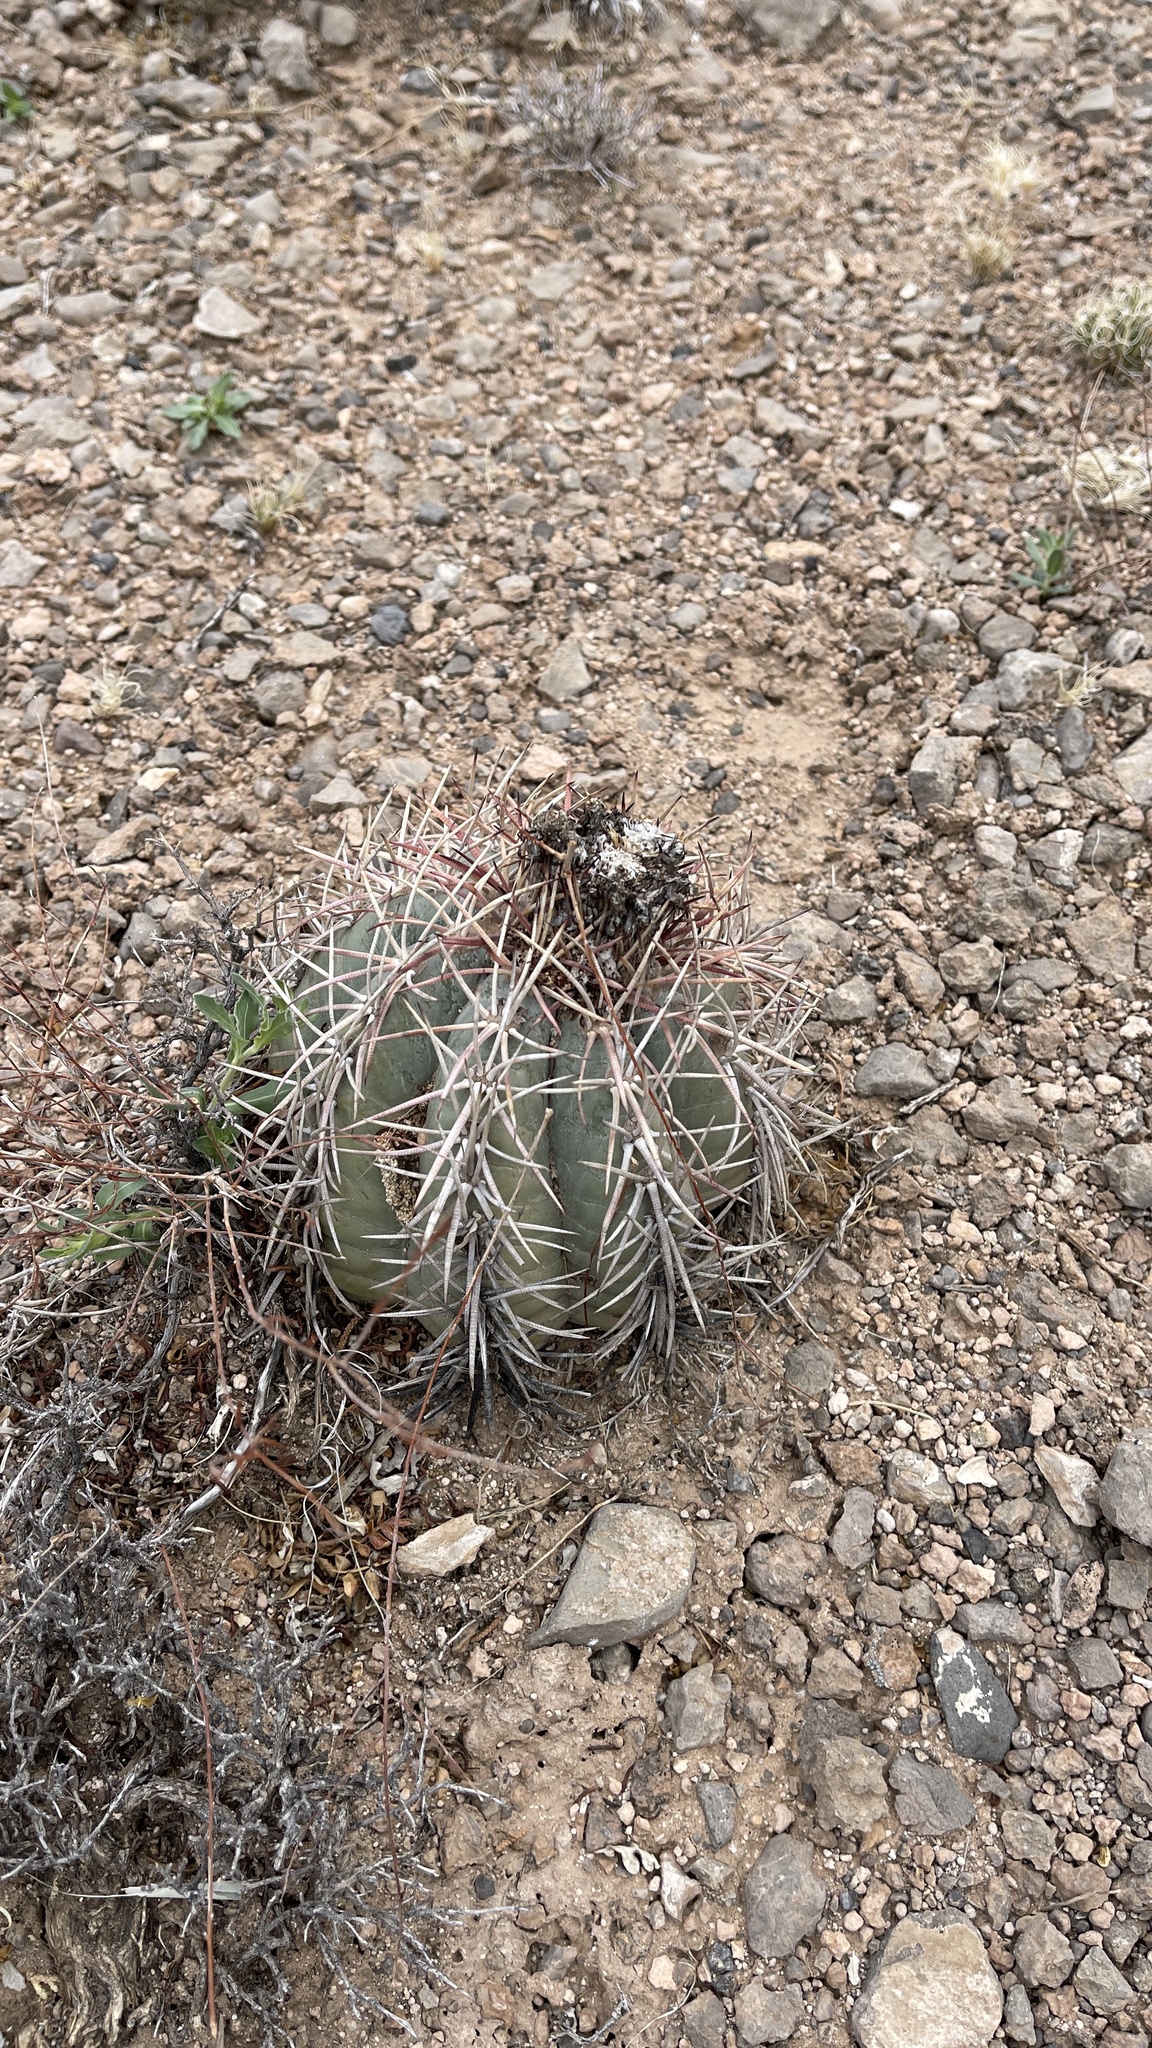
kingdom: Plantae
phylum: Tracheophyta
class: Magnoliopsida
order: Caryophyllales
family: Cactaceae
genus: Echinocactus
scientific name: Echinocactus horizonthalonius
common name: Devilshead
